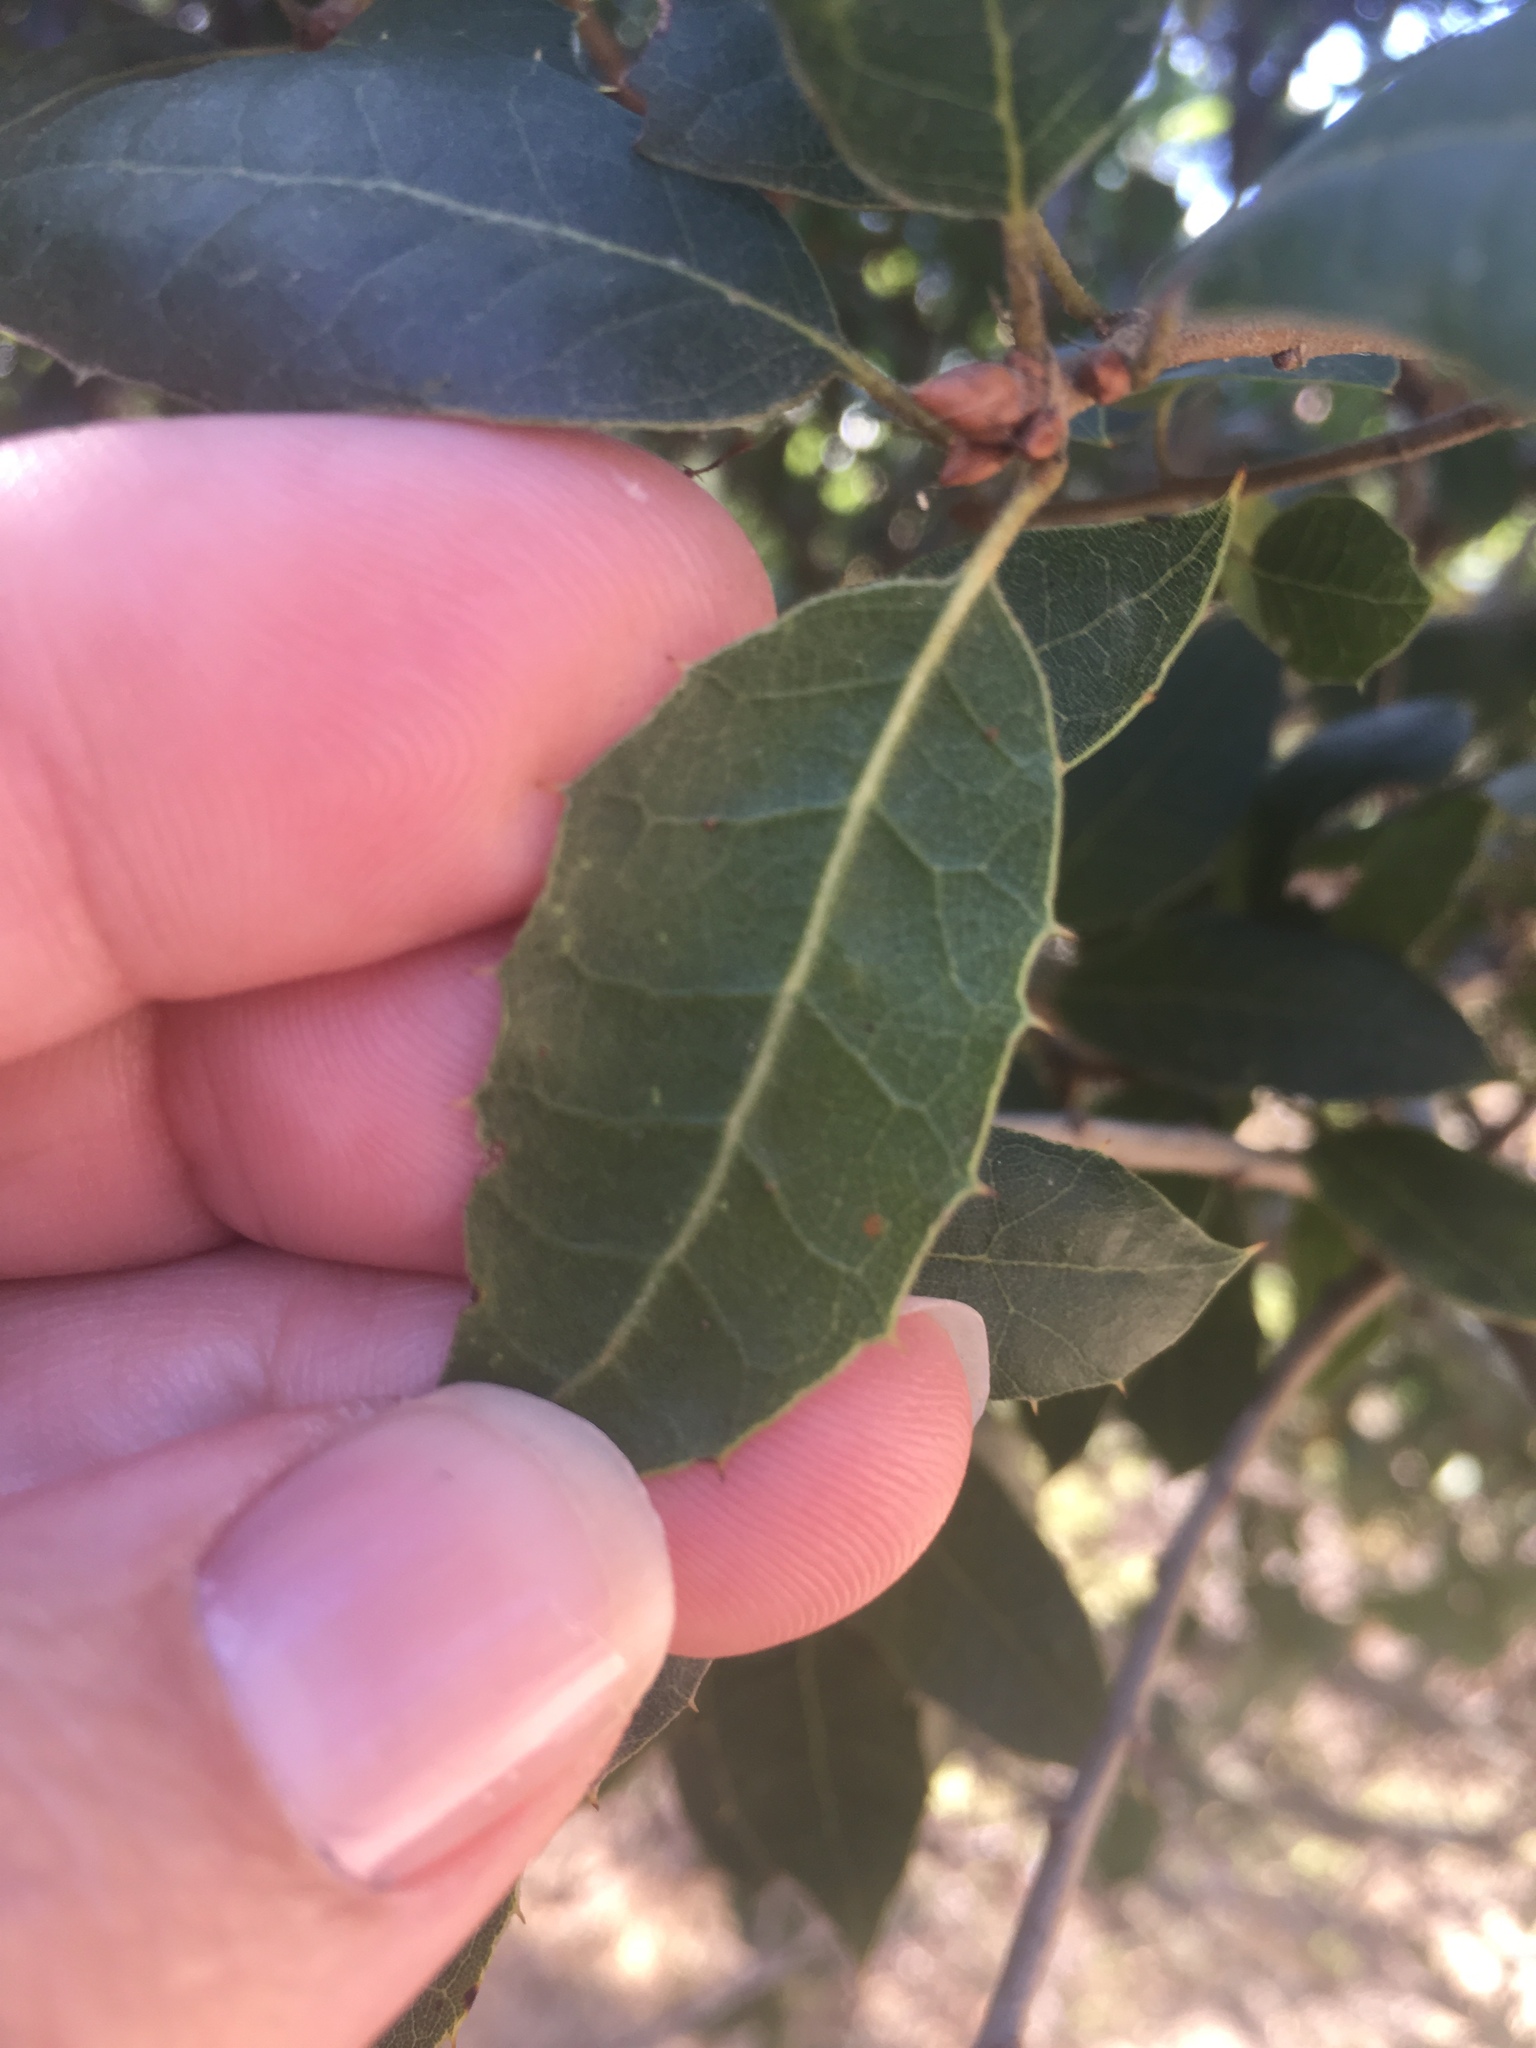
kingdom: Plantae
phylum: Tracheophyta
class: Magnoliopsida
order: Fagales
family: Fagaceae
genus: Quercus
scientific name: Quercus agrifolia
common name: California live oak
